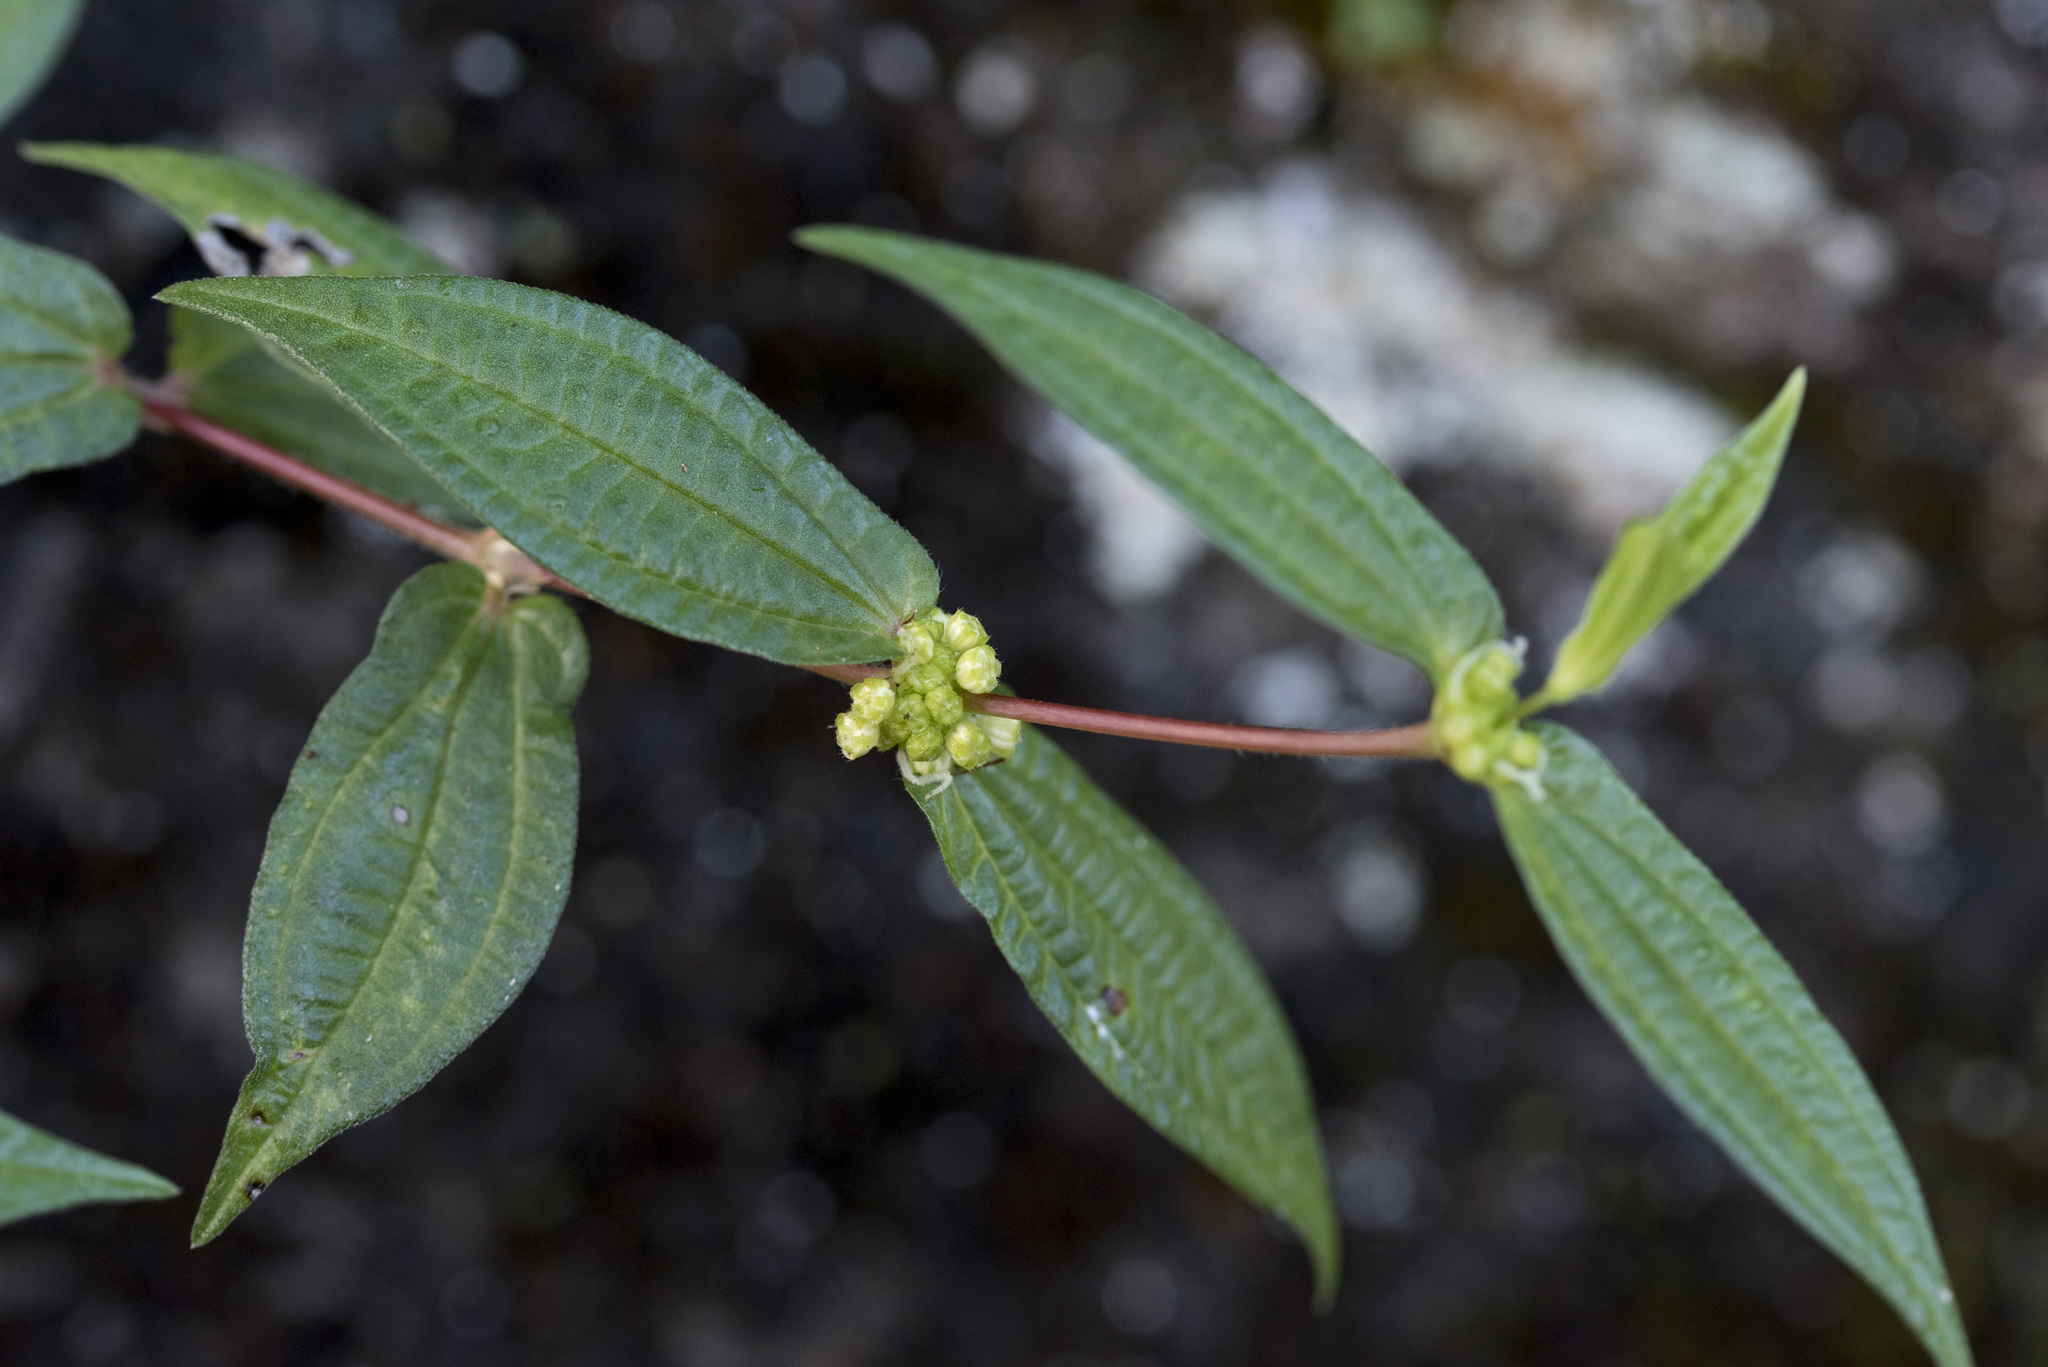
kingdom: Plantae
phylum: Tracheophyta
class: Magnoliopsida
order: Rosales
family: Urticaceae
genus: Gonostegia
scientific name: Gonostegia triandra
